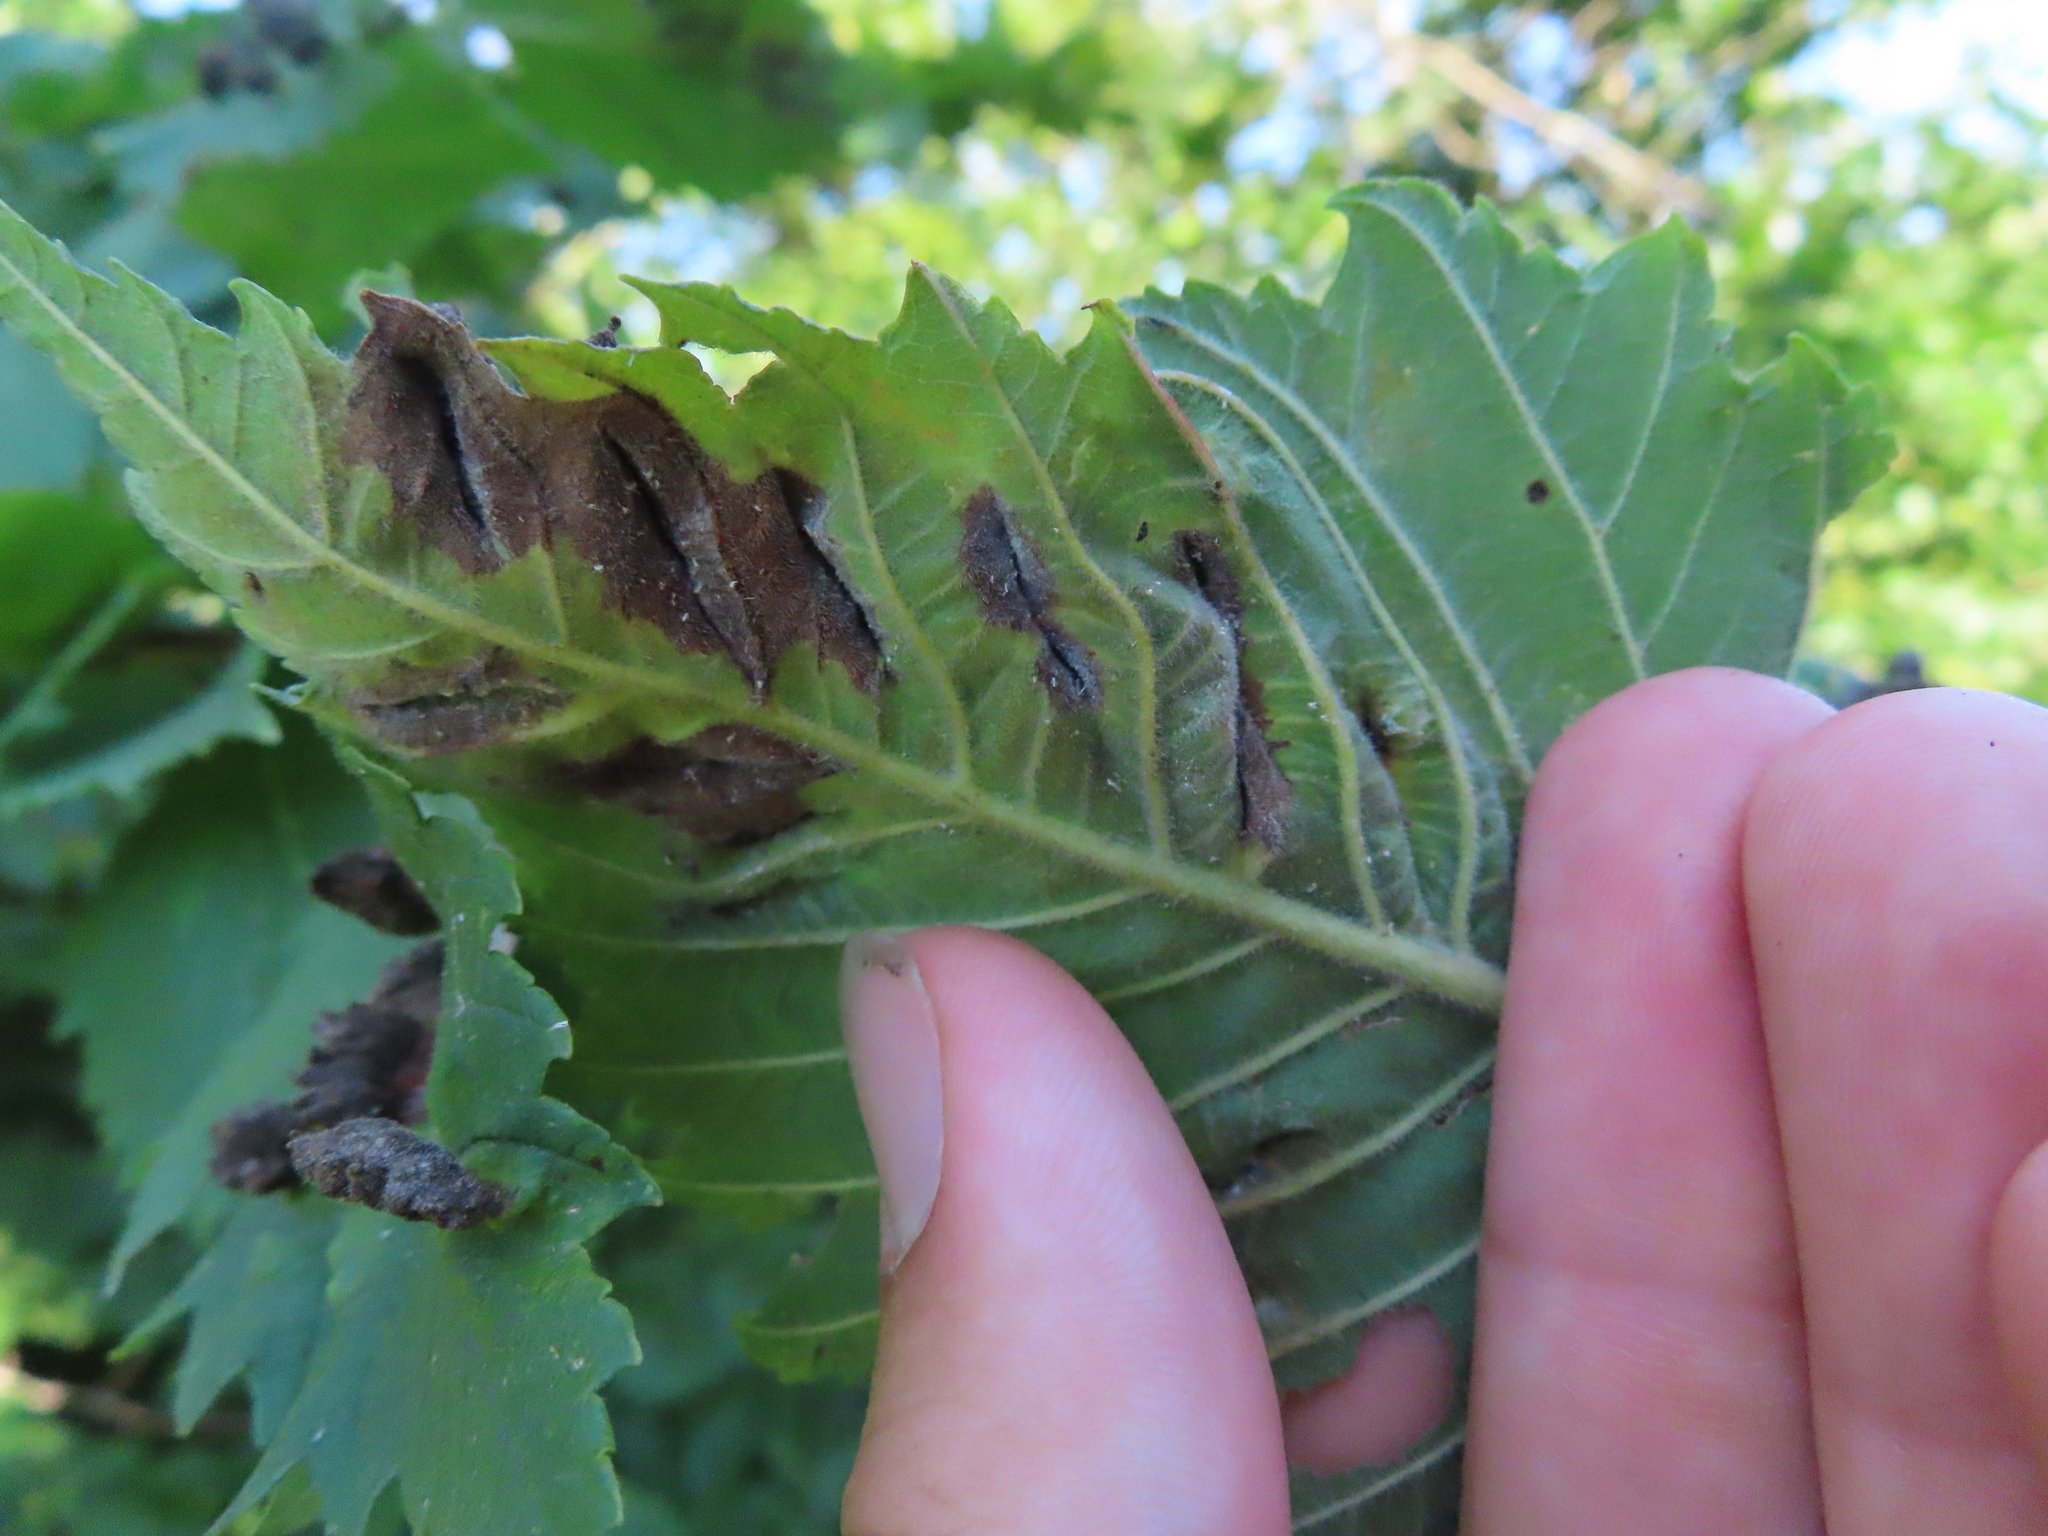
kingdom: Animalia
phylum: Arthropoda
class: Insecta
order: Hemiptera
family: Aphididae
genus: Colopha
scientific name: Colopha ulmicola
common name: Elm cockscombgall aphid
